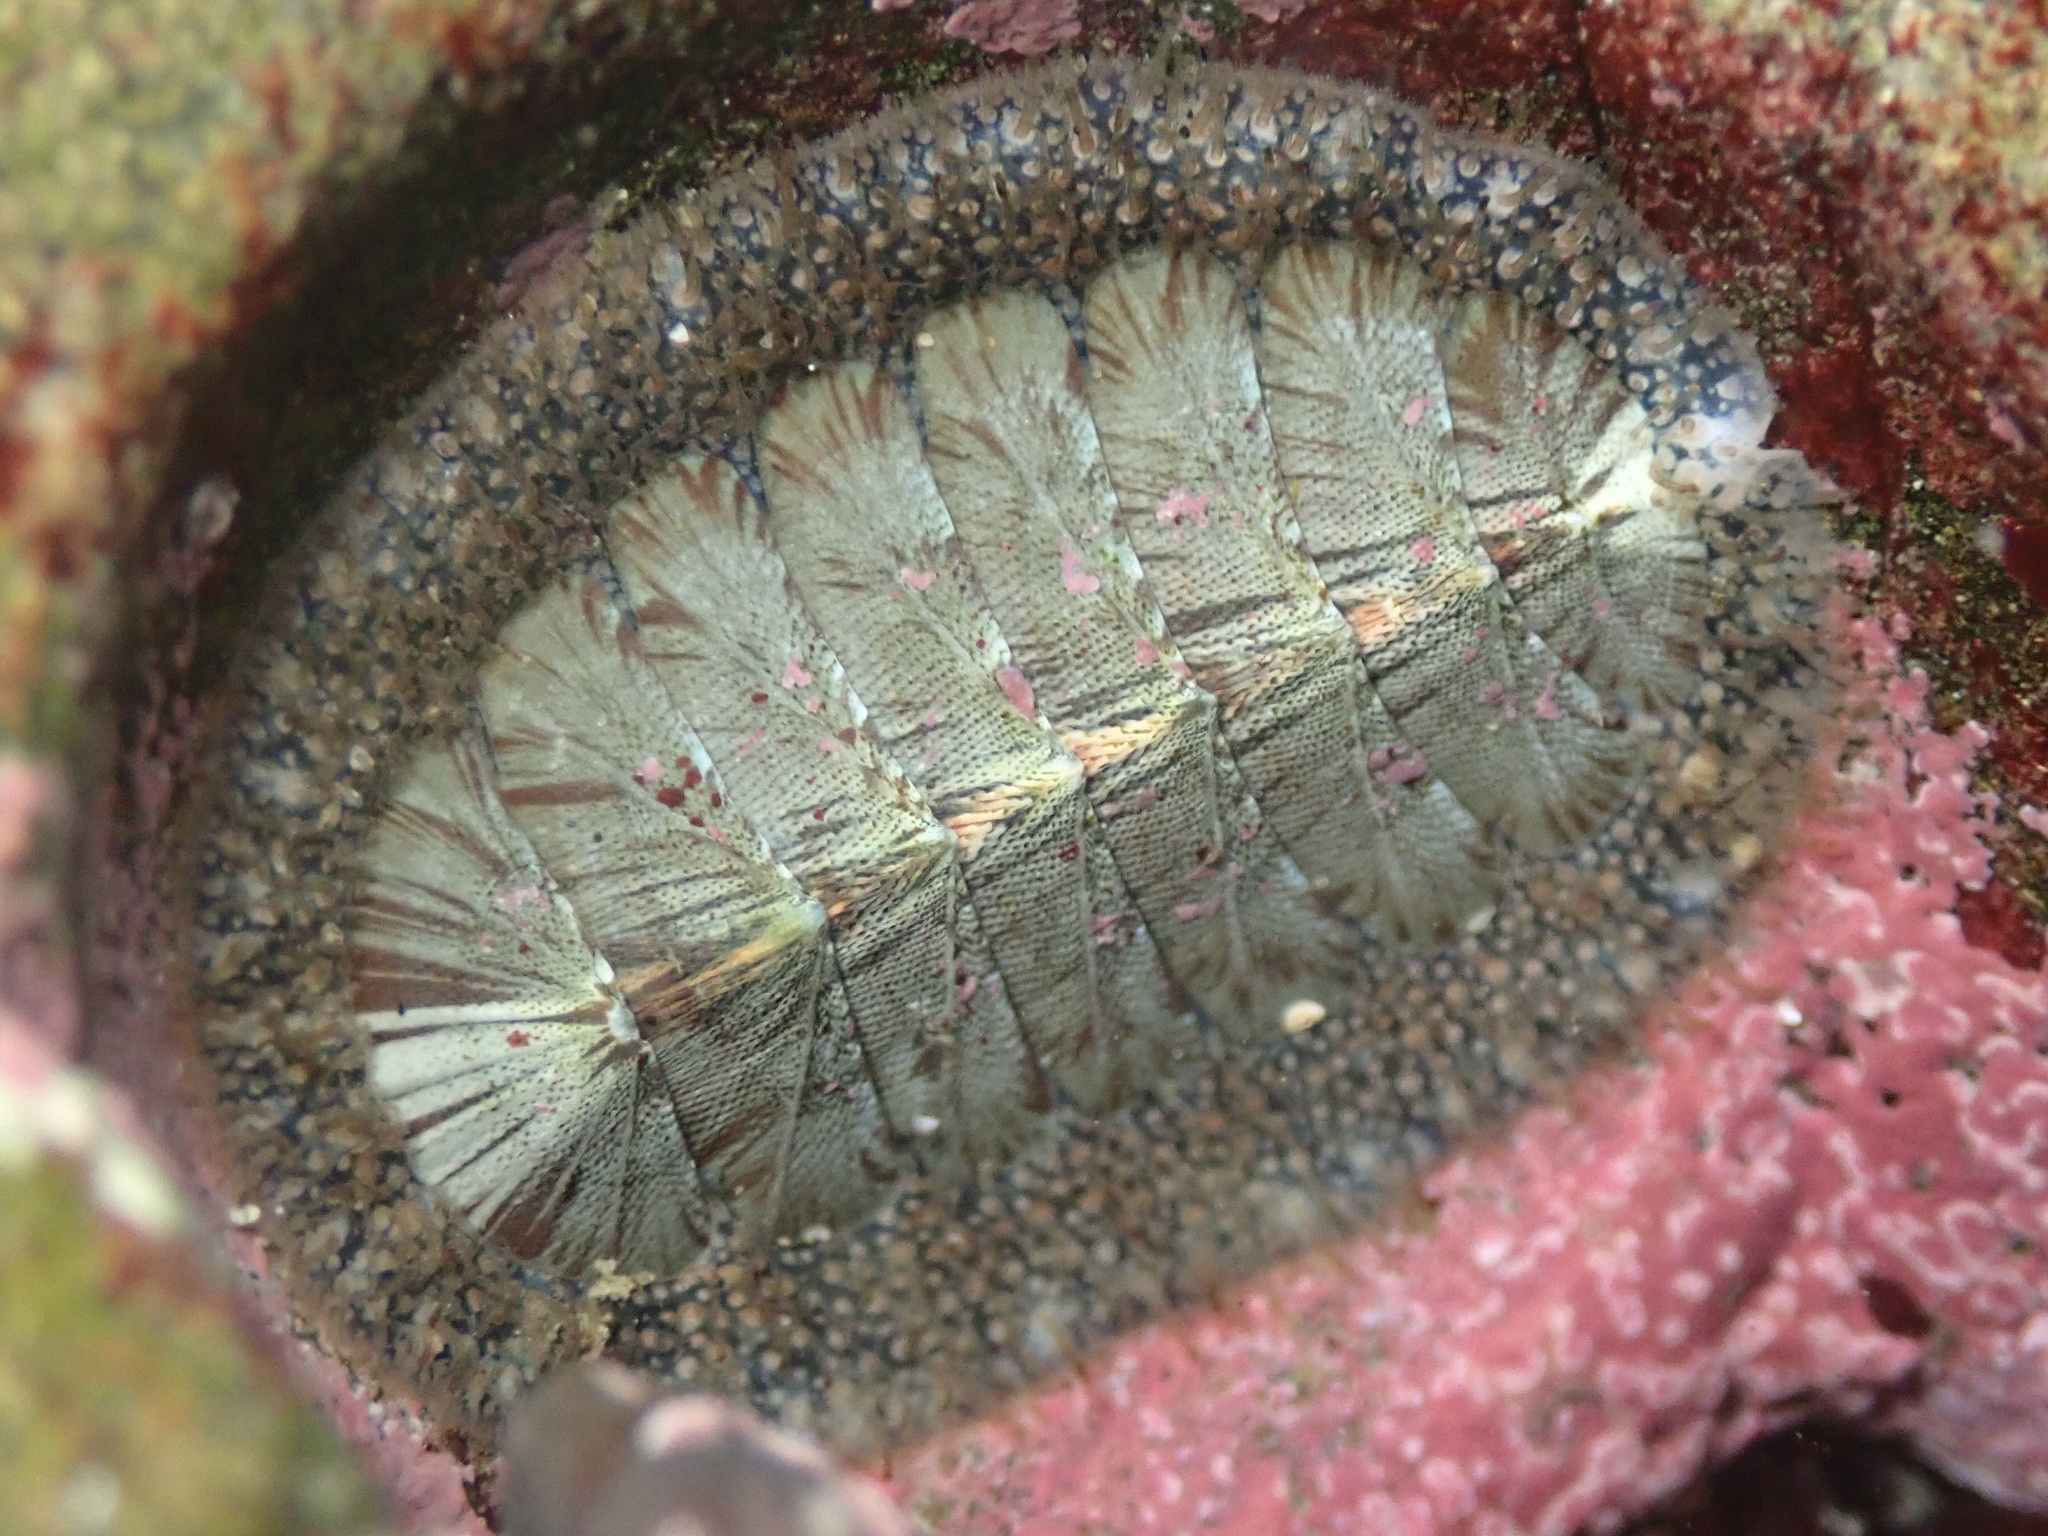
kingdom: Animalia
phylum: Mollusca
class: Polyplacophora
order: Chitonida
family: Mopaliidae
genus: Mopalia
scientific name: Mopalia lignosa
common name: Woody chiton
